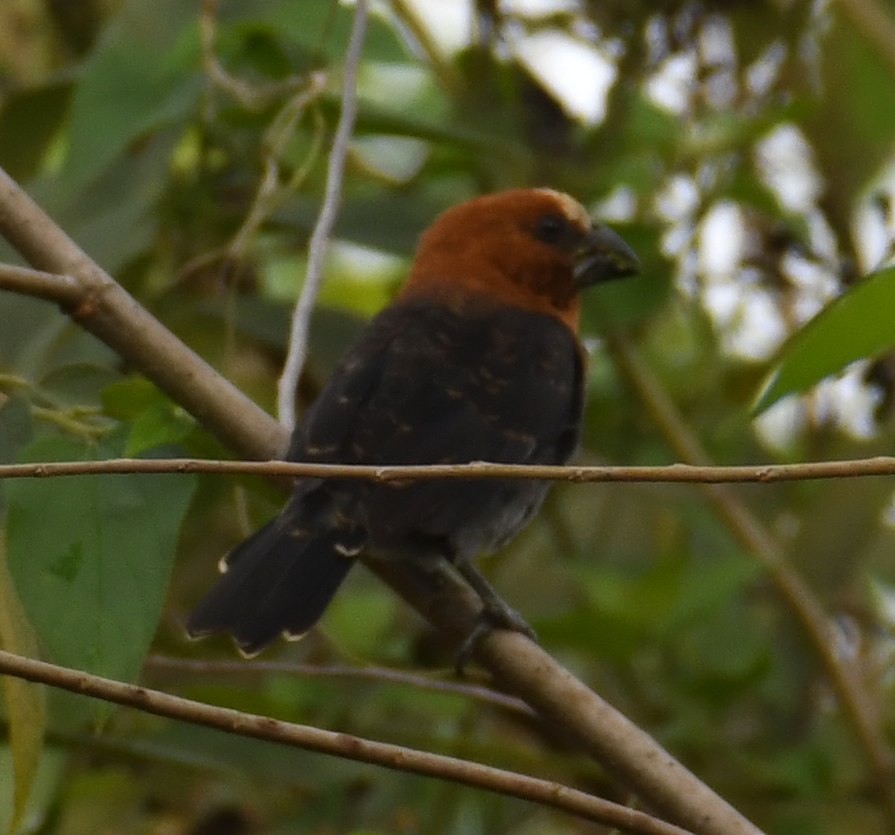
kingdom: Animalia
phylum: Chordata
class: Aves
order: Passeriformes
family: Ploceidae
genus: Amblyospiza
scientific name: Amblyospiza albifrons
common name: Thick-billed weaver
